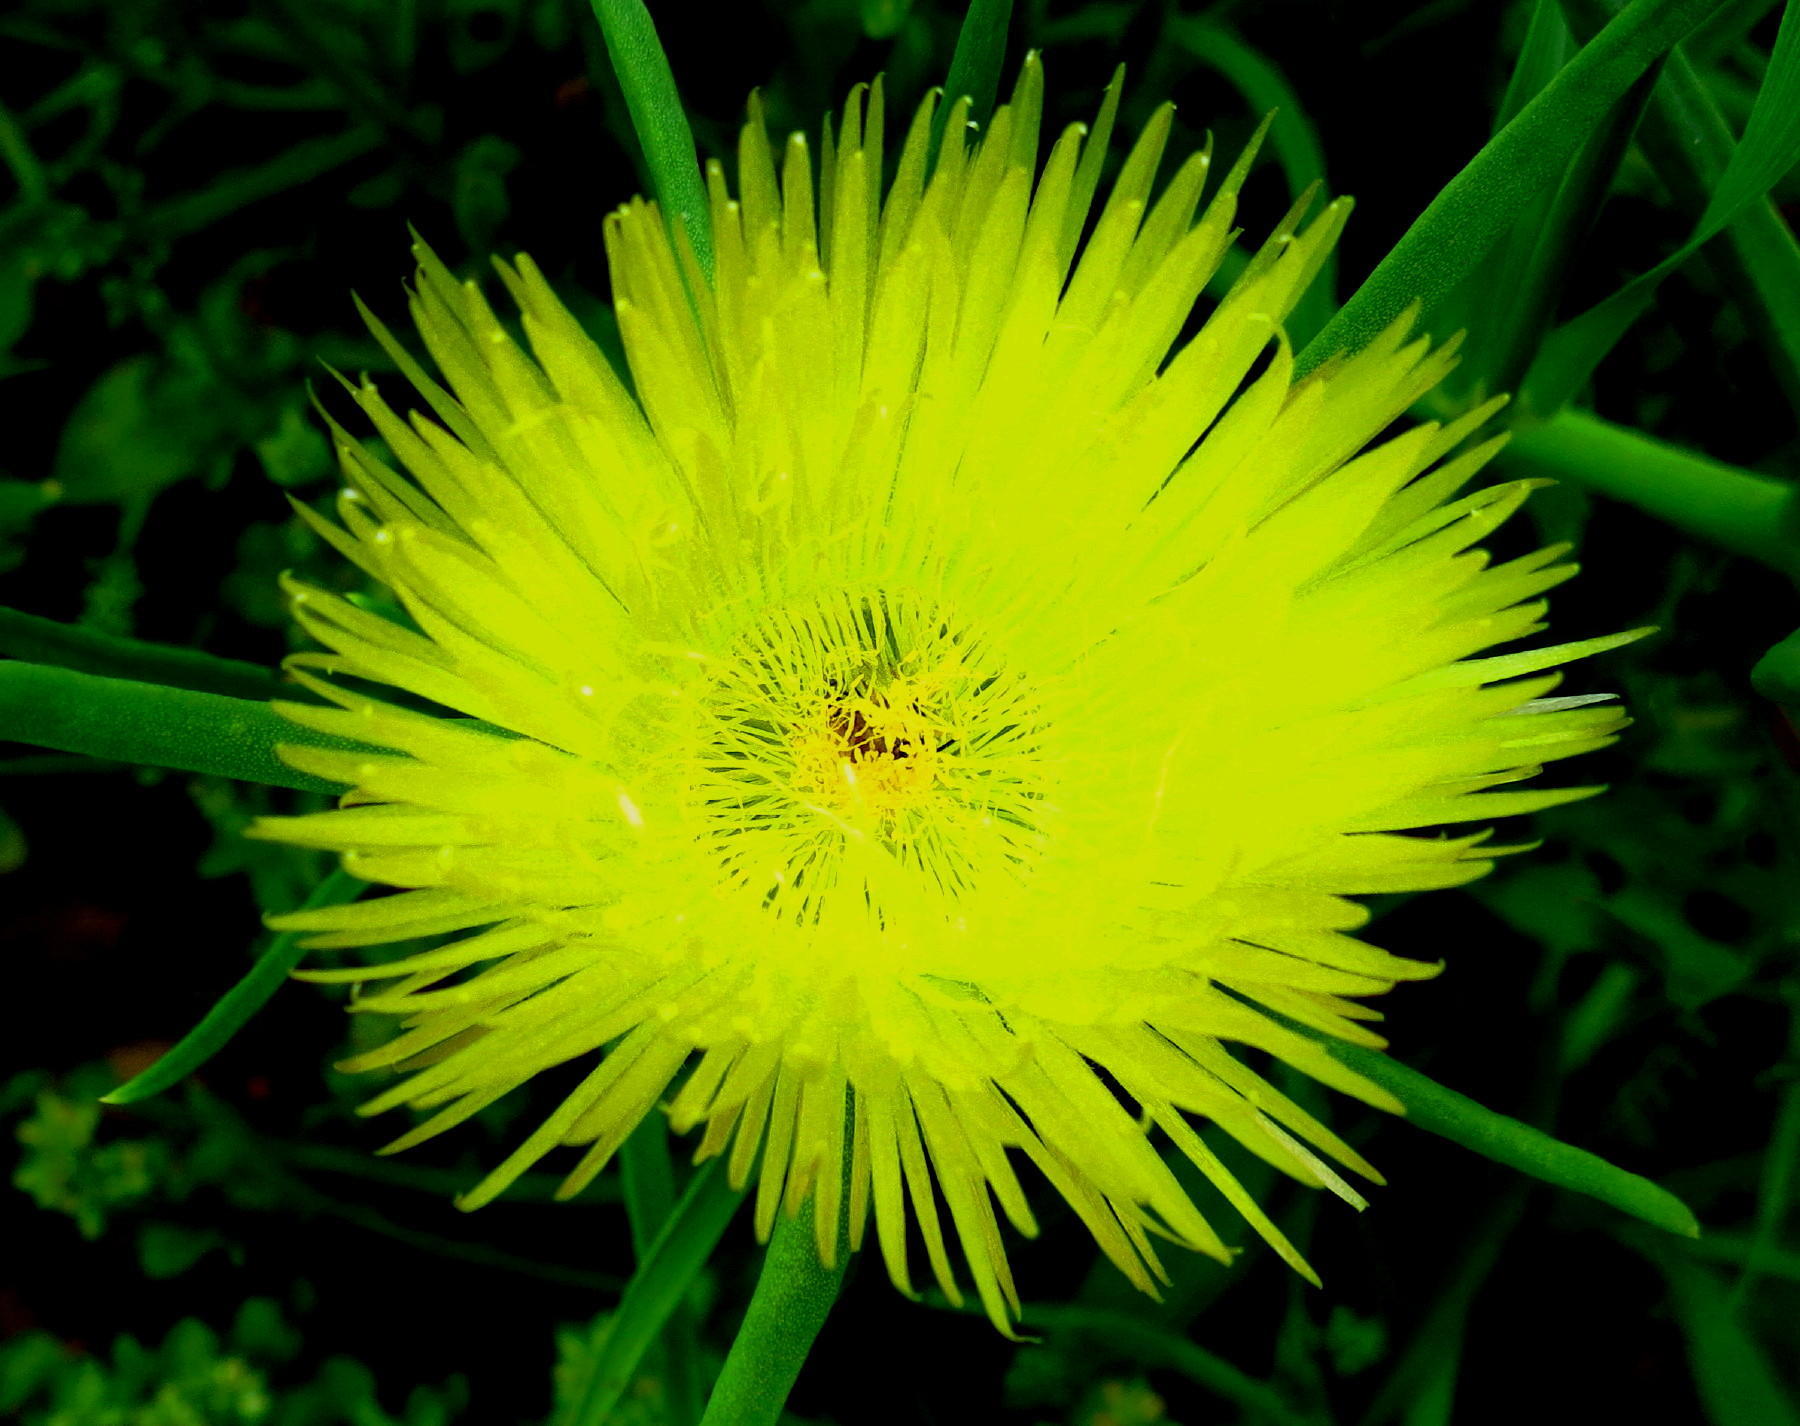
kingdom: Plantae
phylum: Tracheophyta
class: Magnoliopsida
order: Caryophyllales
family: Aizoaceae
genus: Conicosia
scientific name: Conicosia pugioniformis
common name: Narrow-leaved iceplant
